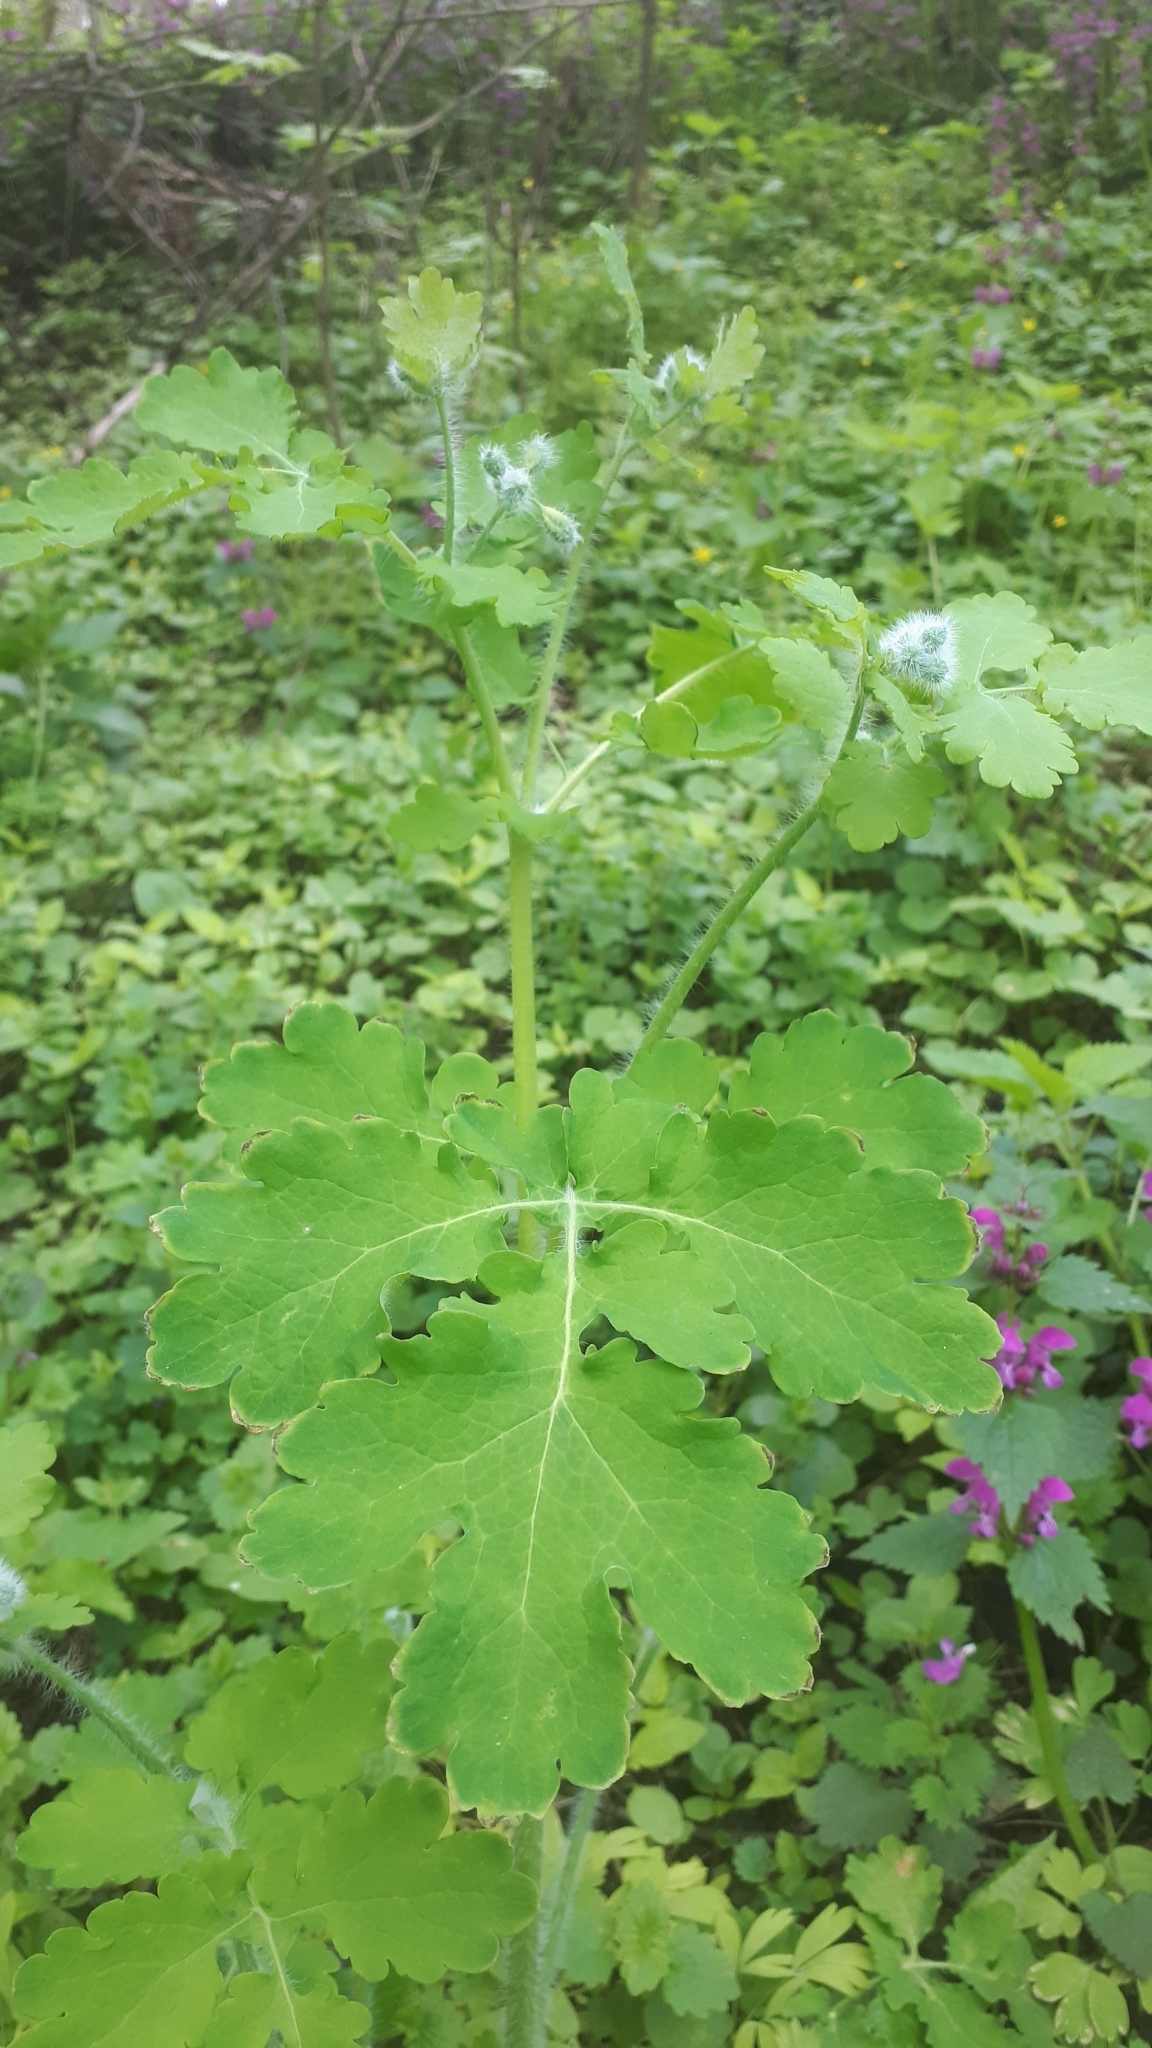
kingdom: Plantae
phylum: Tracheophyta
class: Magnoliopsida
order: Ranunculales
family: Papaveraceae
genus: Chelidonium
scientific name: Chelidonium majus
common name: Greater celandine
